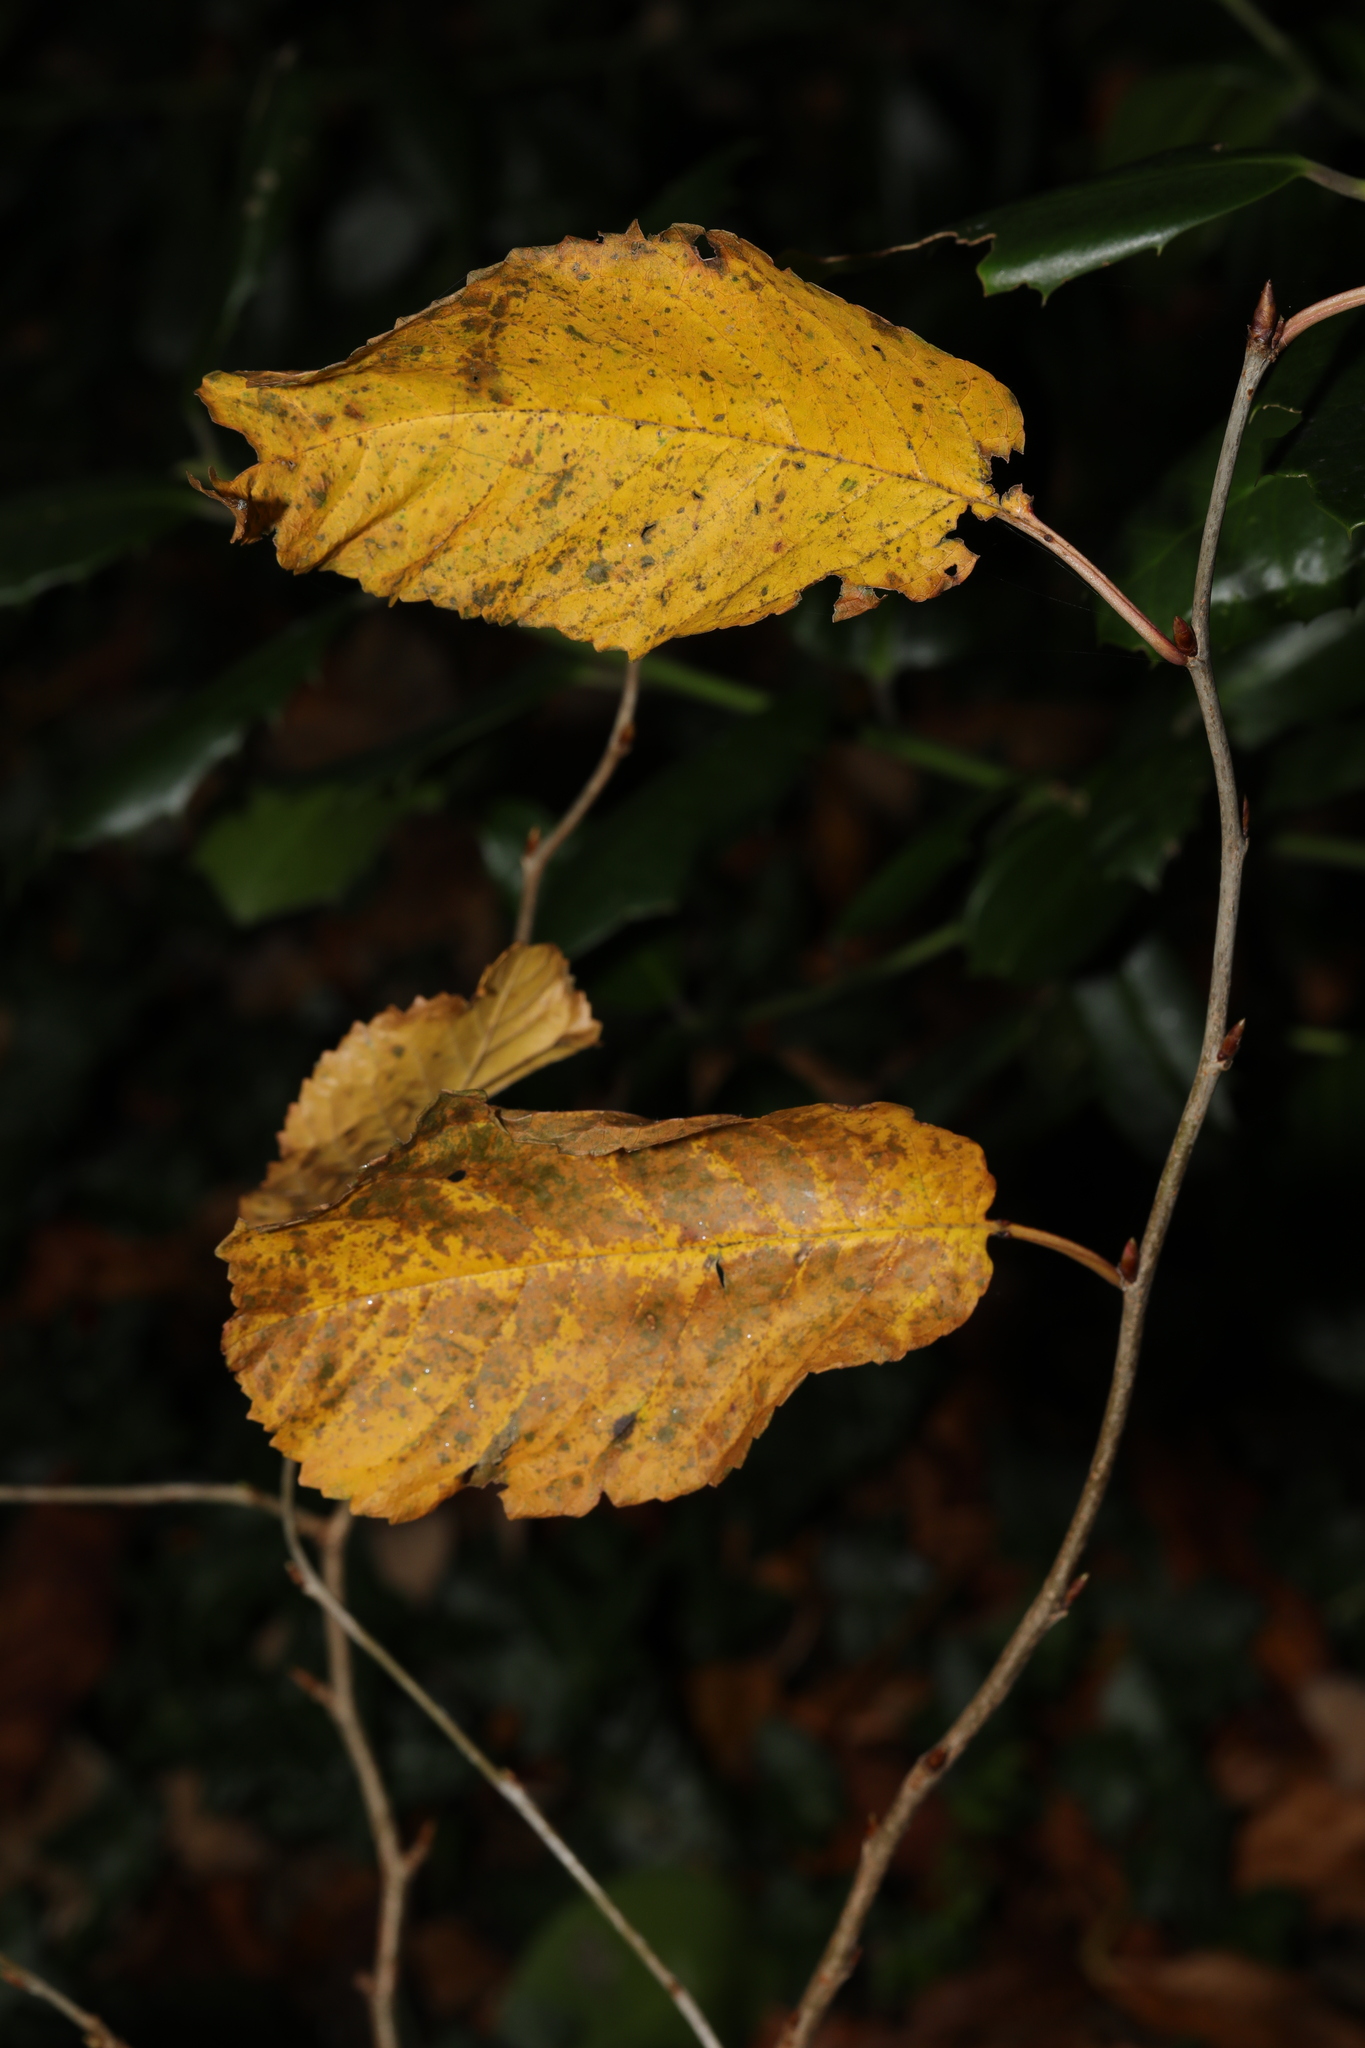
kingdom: Plantae
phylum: Tracheophyta
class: Magnoliopsida
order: Rosales
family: Rosaceae
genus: Prunus
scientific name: Prunus avium
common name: Sweet cherry
